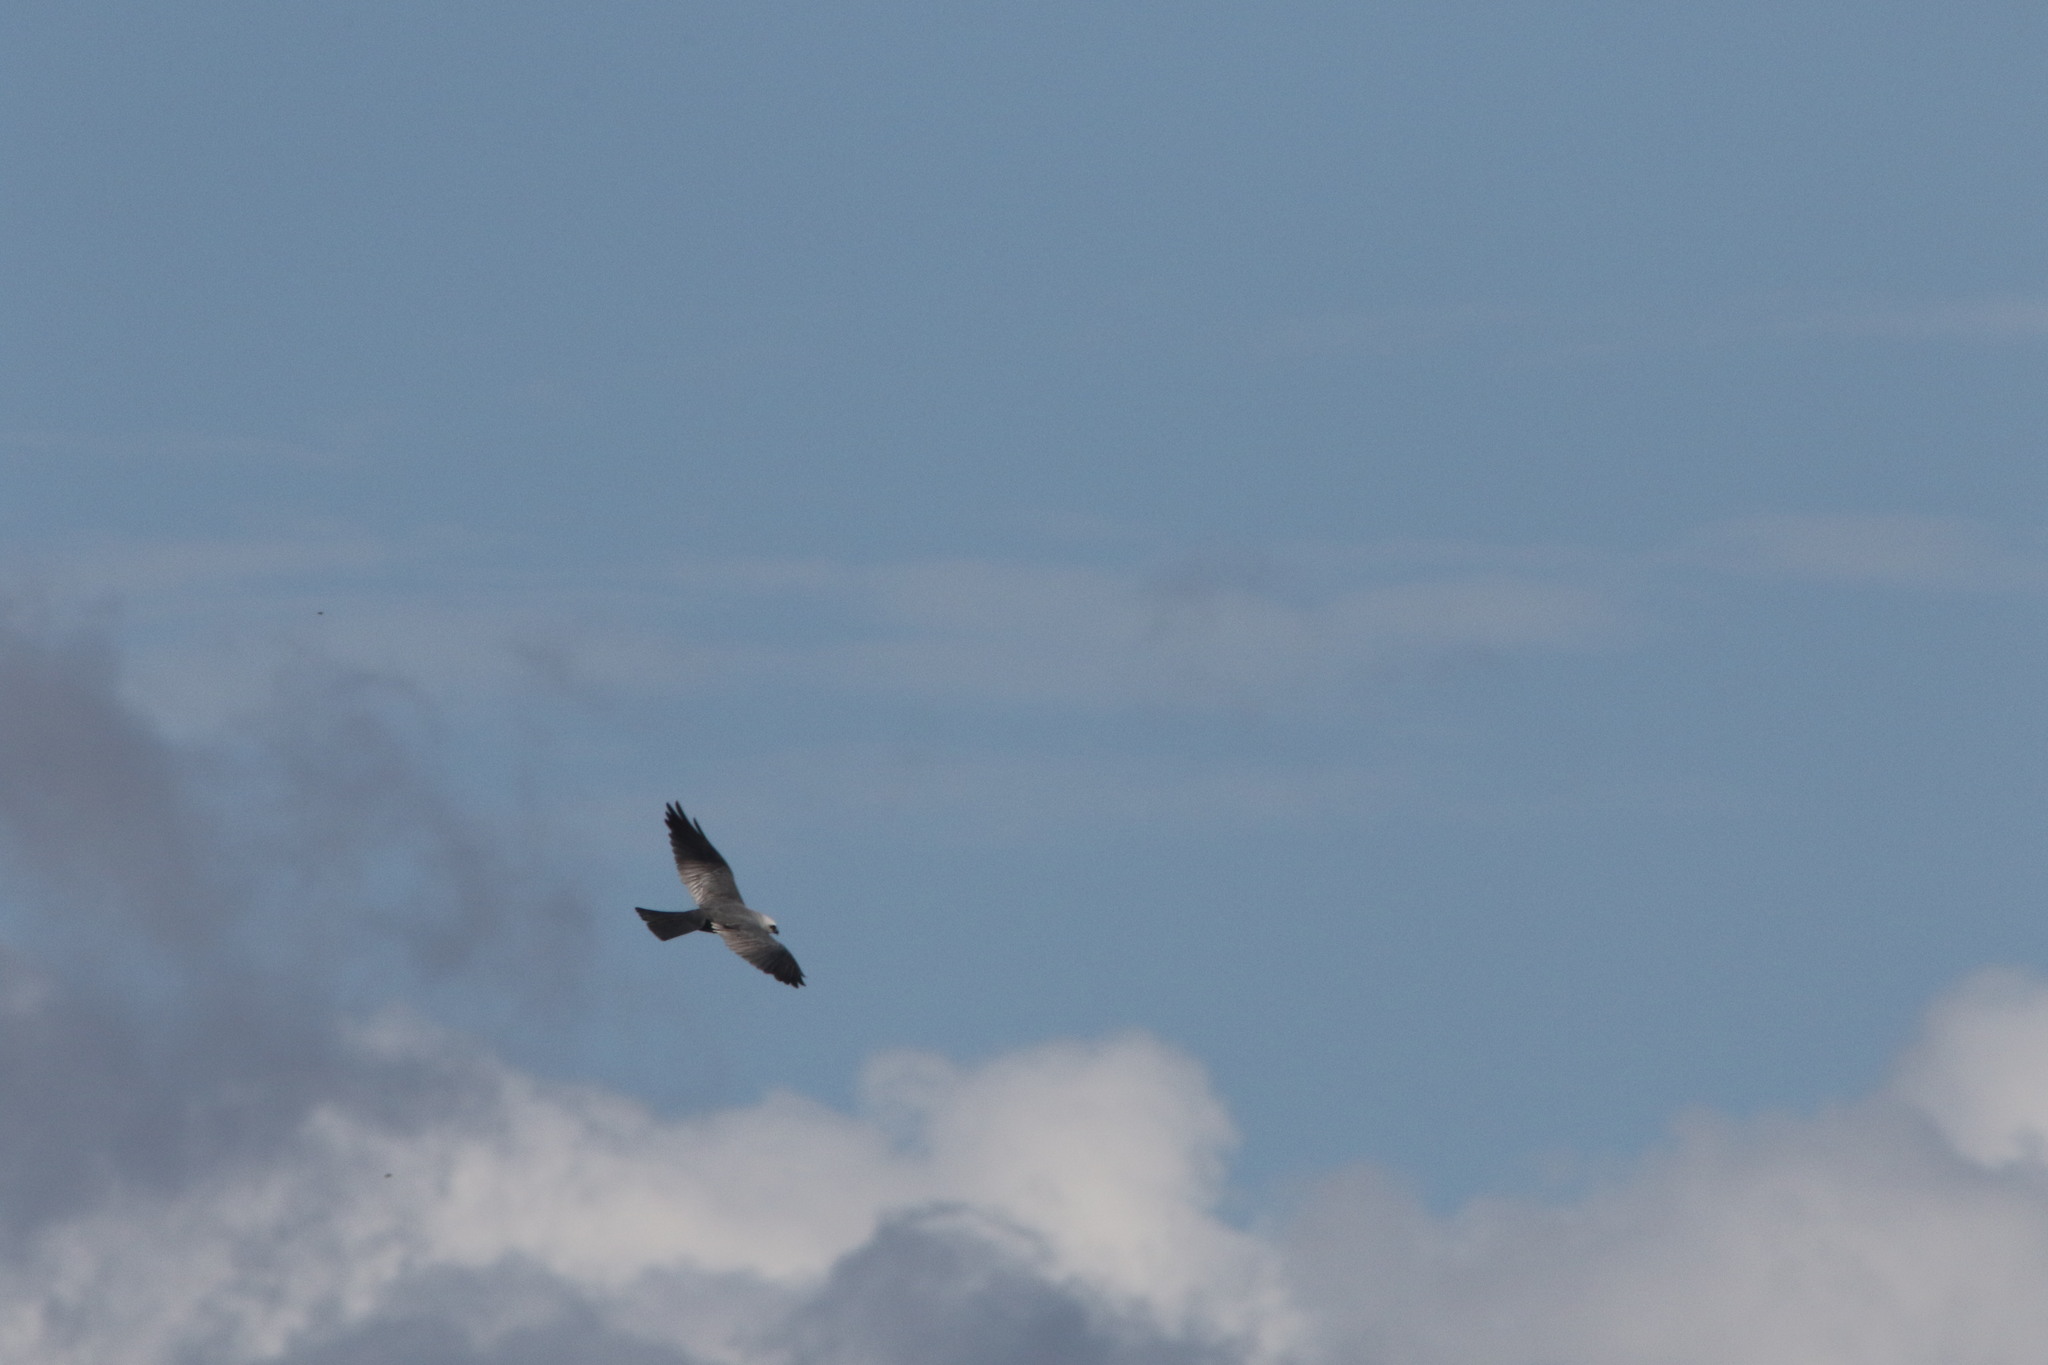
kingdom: Animalia
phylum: Chordata
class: Aves
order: Accipitriformes
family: Accipitridae
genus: Ictinia
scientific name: Ictinia mississippiensis
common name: Mississippi kite
